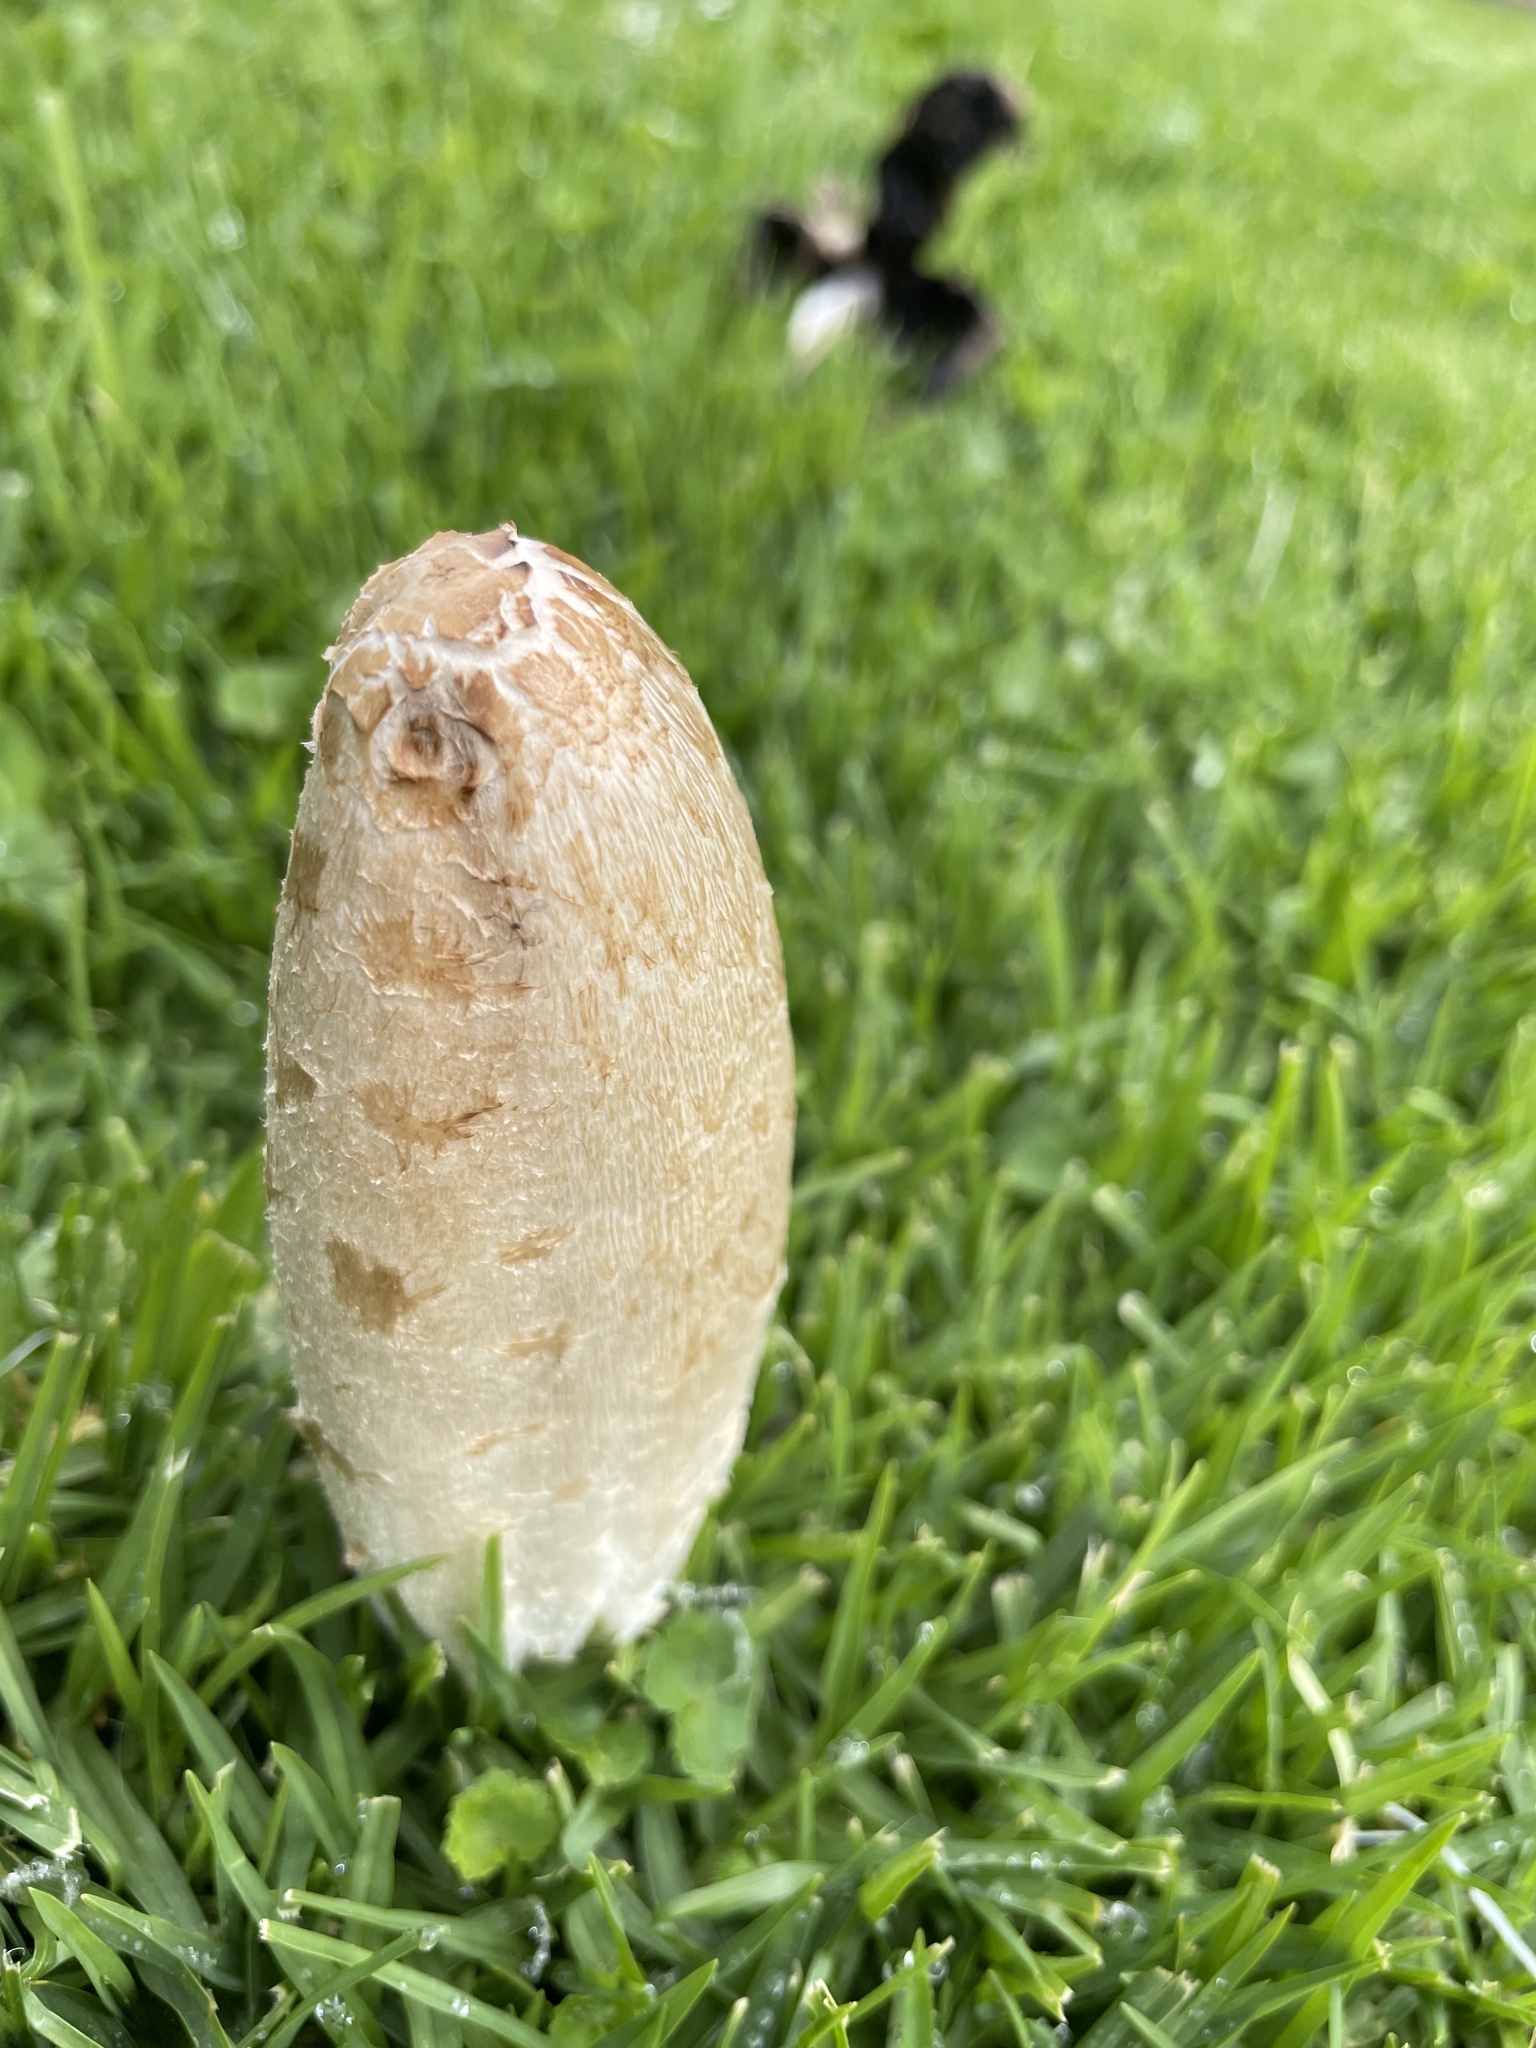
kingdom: Fungi
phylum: Basidiomycota
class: Agaricomycetes
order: Agaricales
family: Agaricaceae
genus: Coprinus
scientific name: Coprinus comatus
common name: Lawyer's wig
